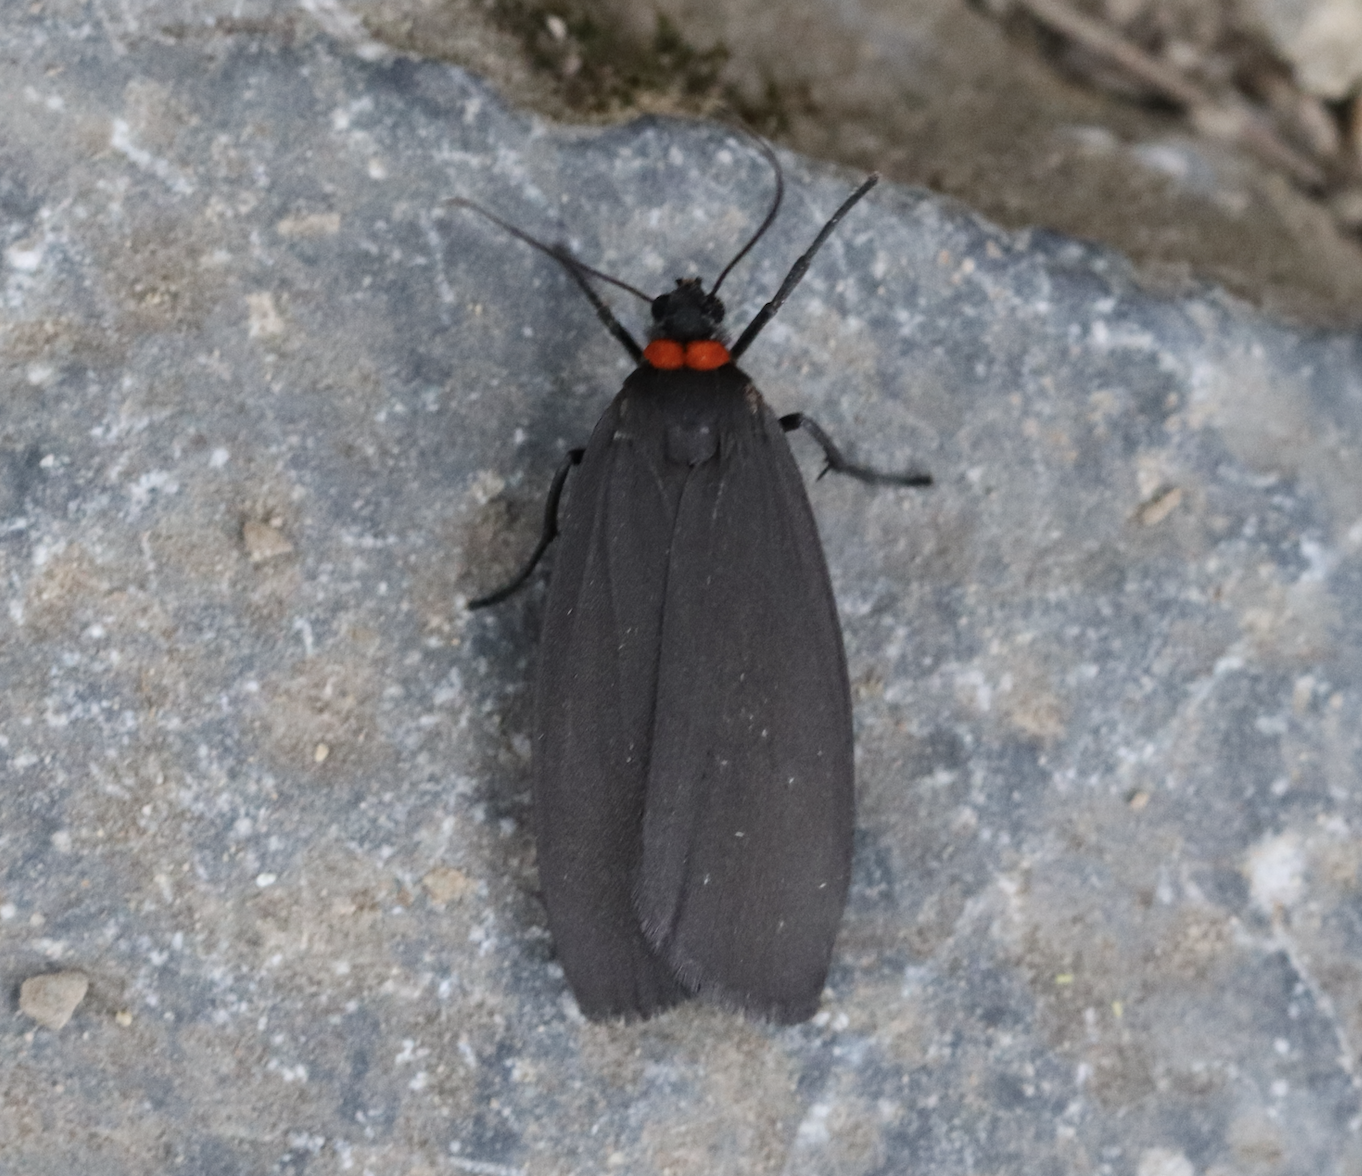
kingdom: Animalia
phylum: Arthropoda
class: Insecta
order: Lepidoptera
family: Erebidae
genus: Atolmis
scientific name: Atolmis rubricollis
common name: Red-necked footman
